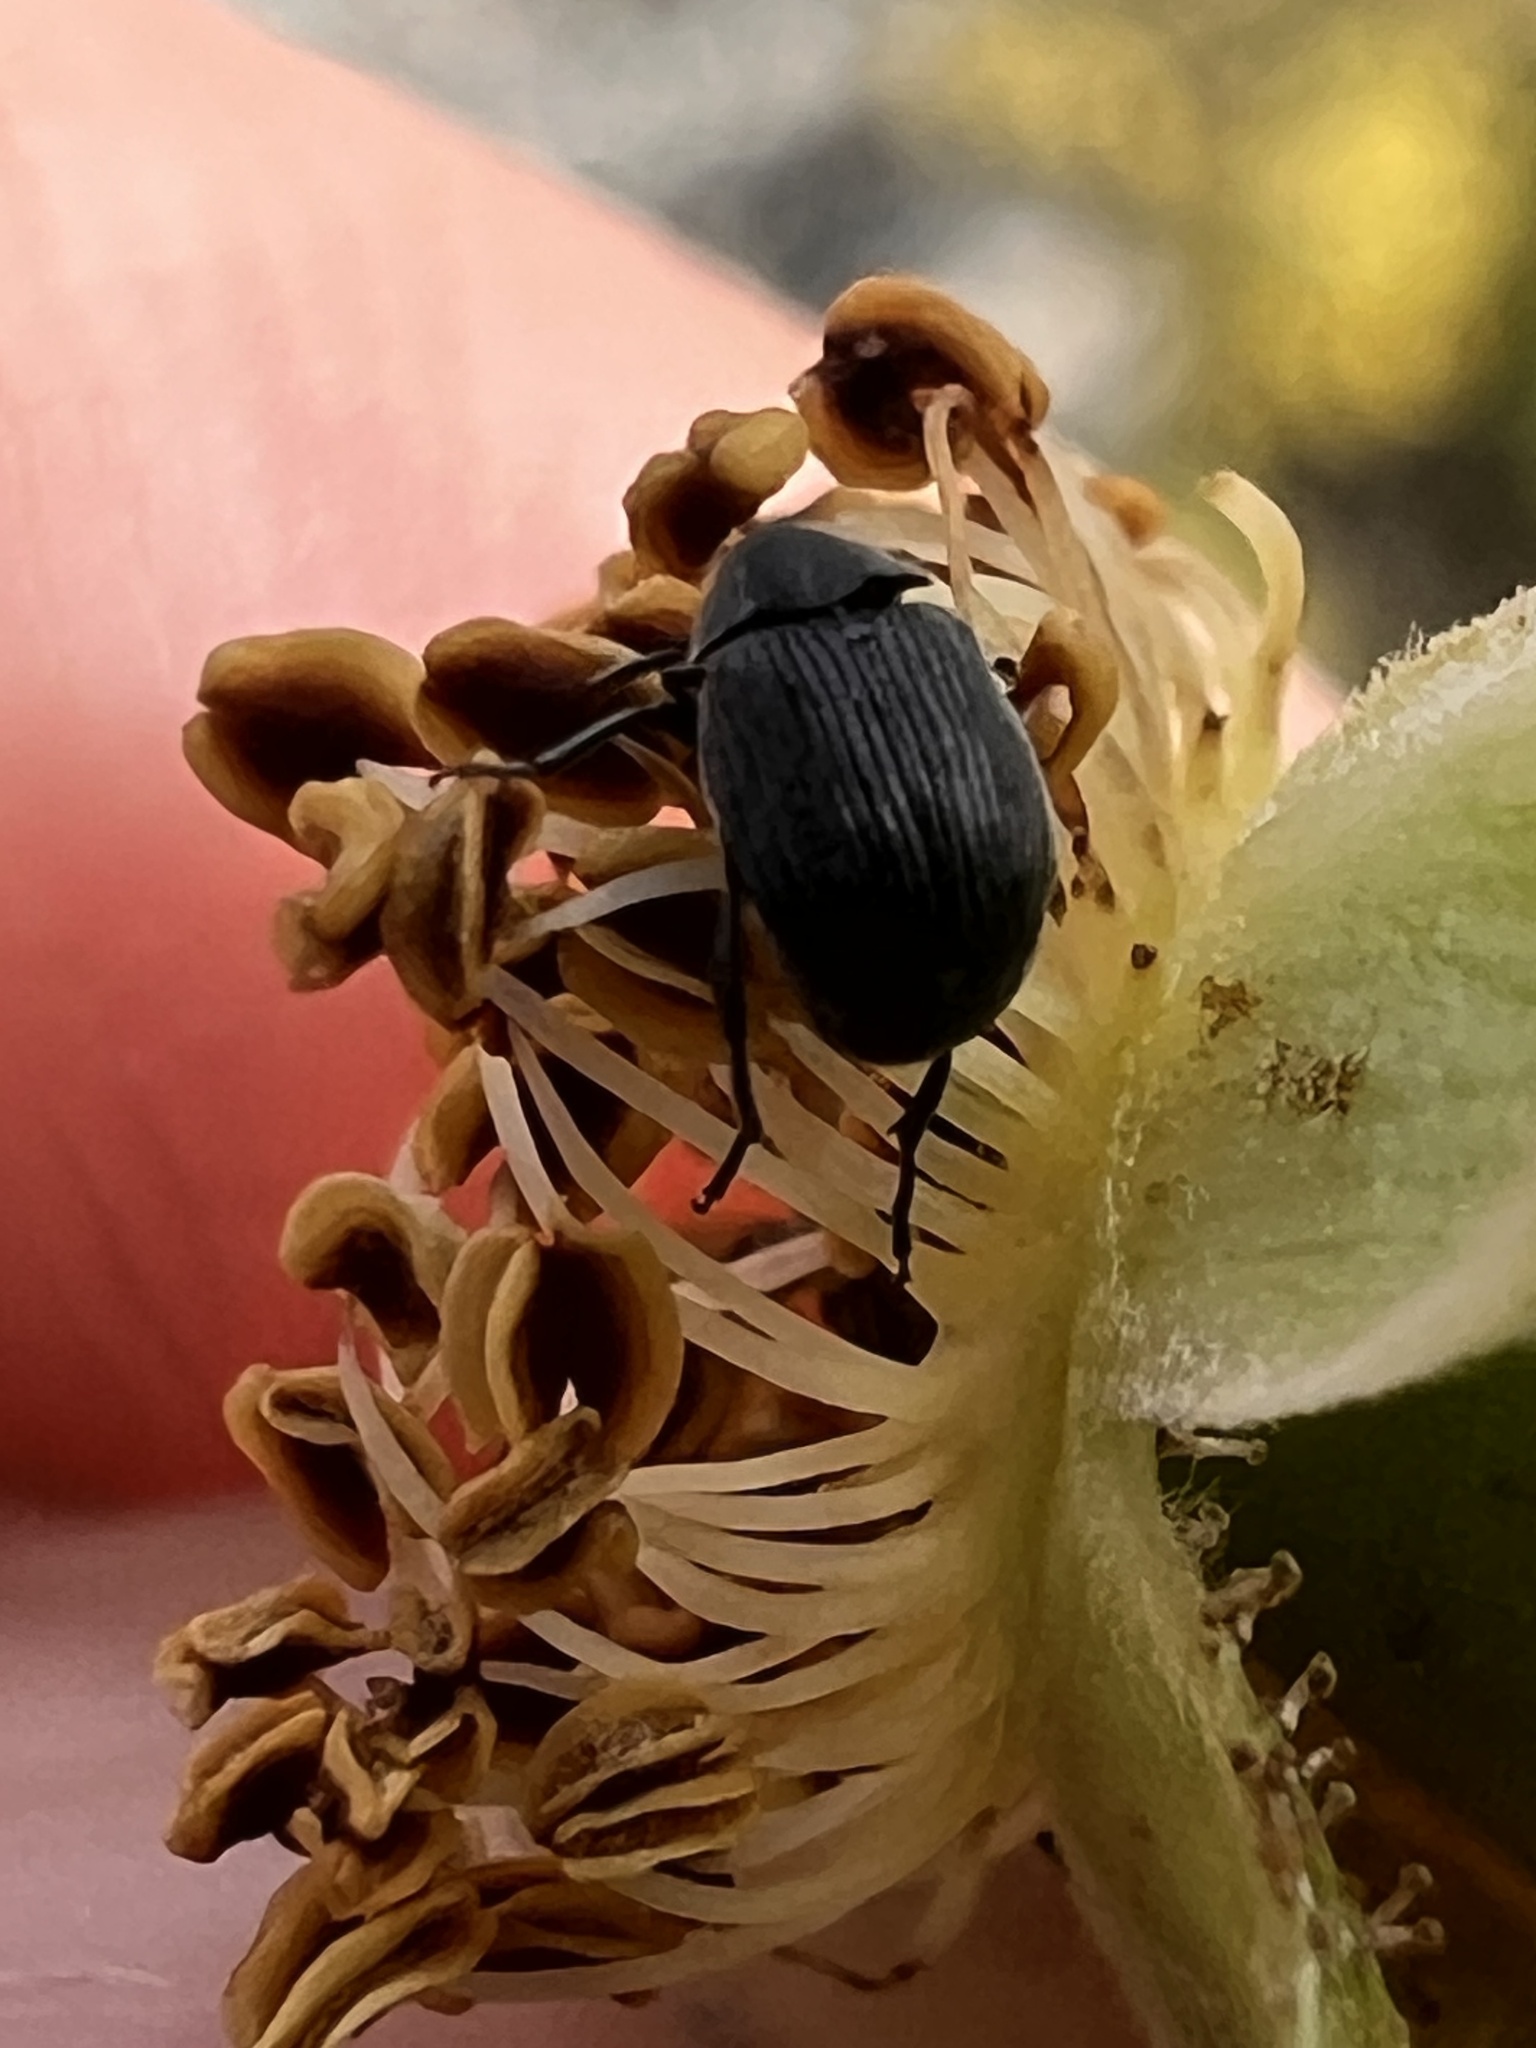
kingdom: Animalia
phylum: Arthropoda
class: Insecta
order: Coleoptera
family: Chrysomelidae
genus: Bruchidius
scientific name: Bruchidius villosus
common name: Scotch broom bruchid
